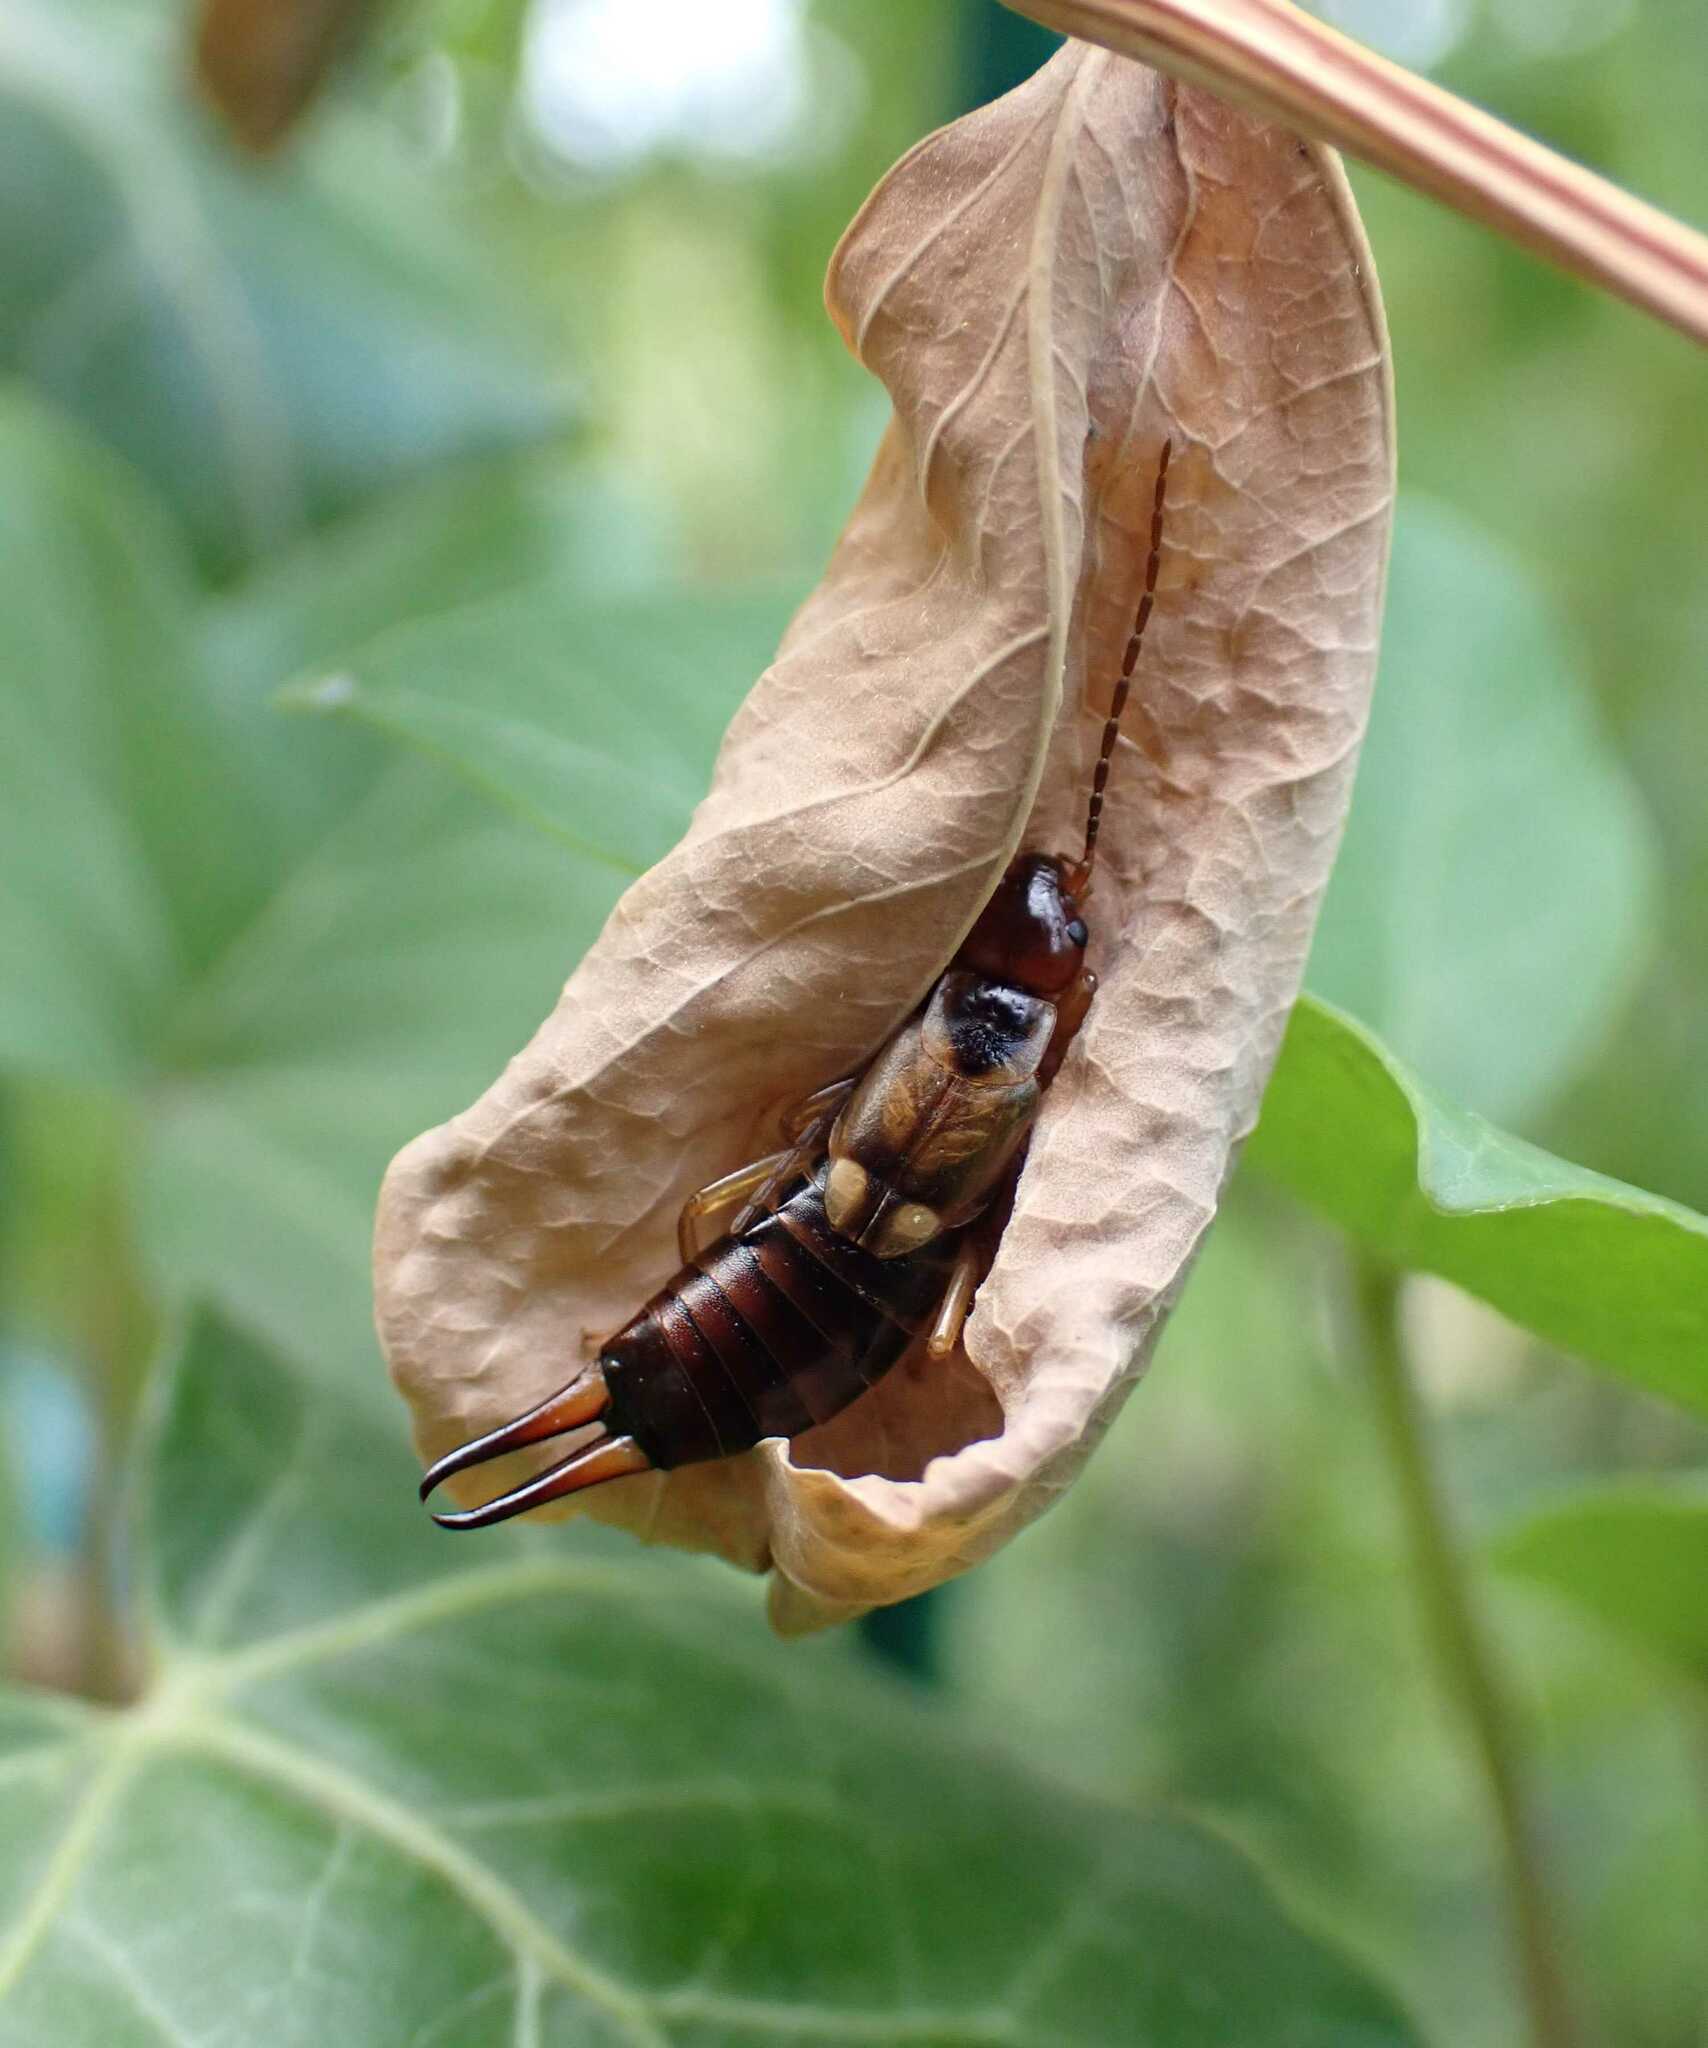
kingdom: Animalia
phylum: Arthropoda
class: Insecta
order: Dermaptera
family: Forficulidae
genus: Forficula
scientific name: Forficula
